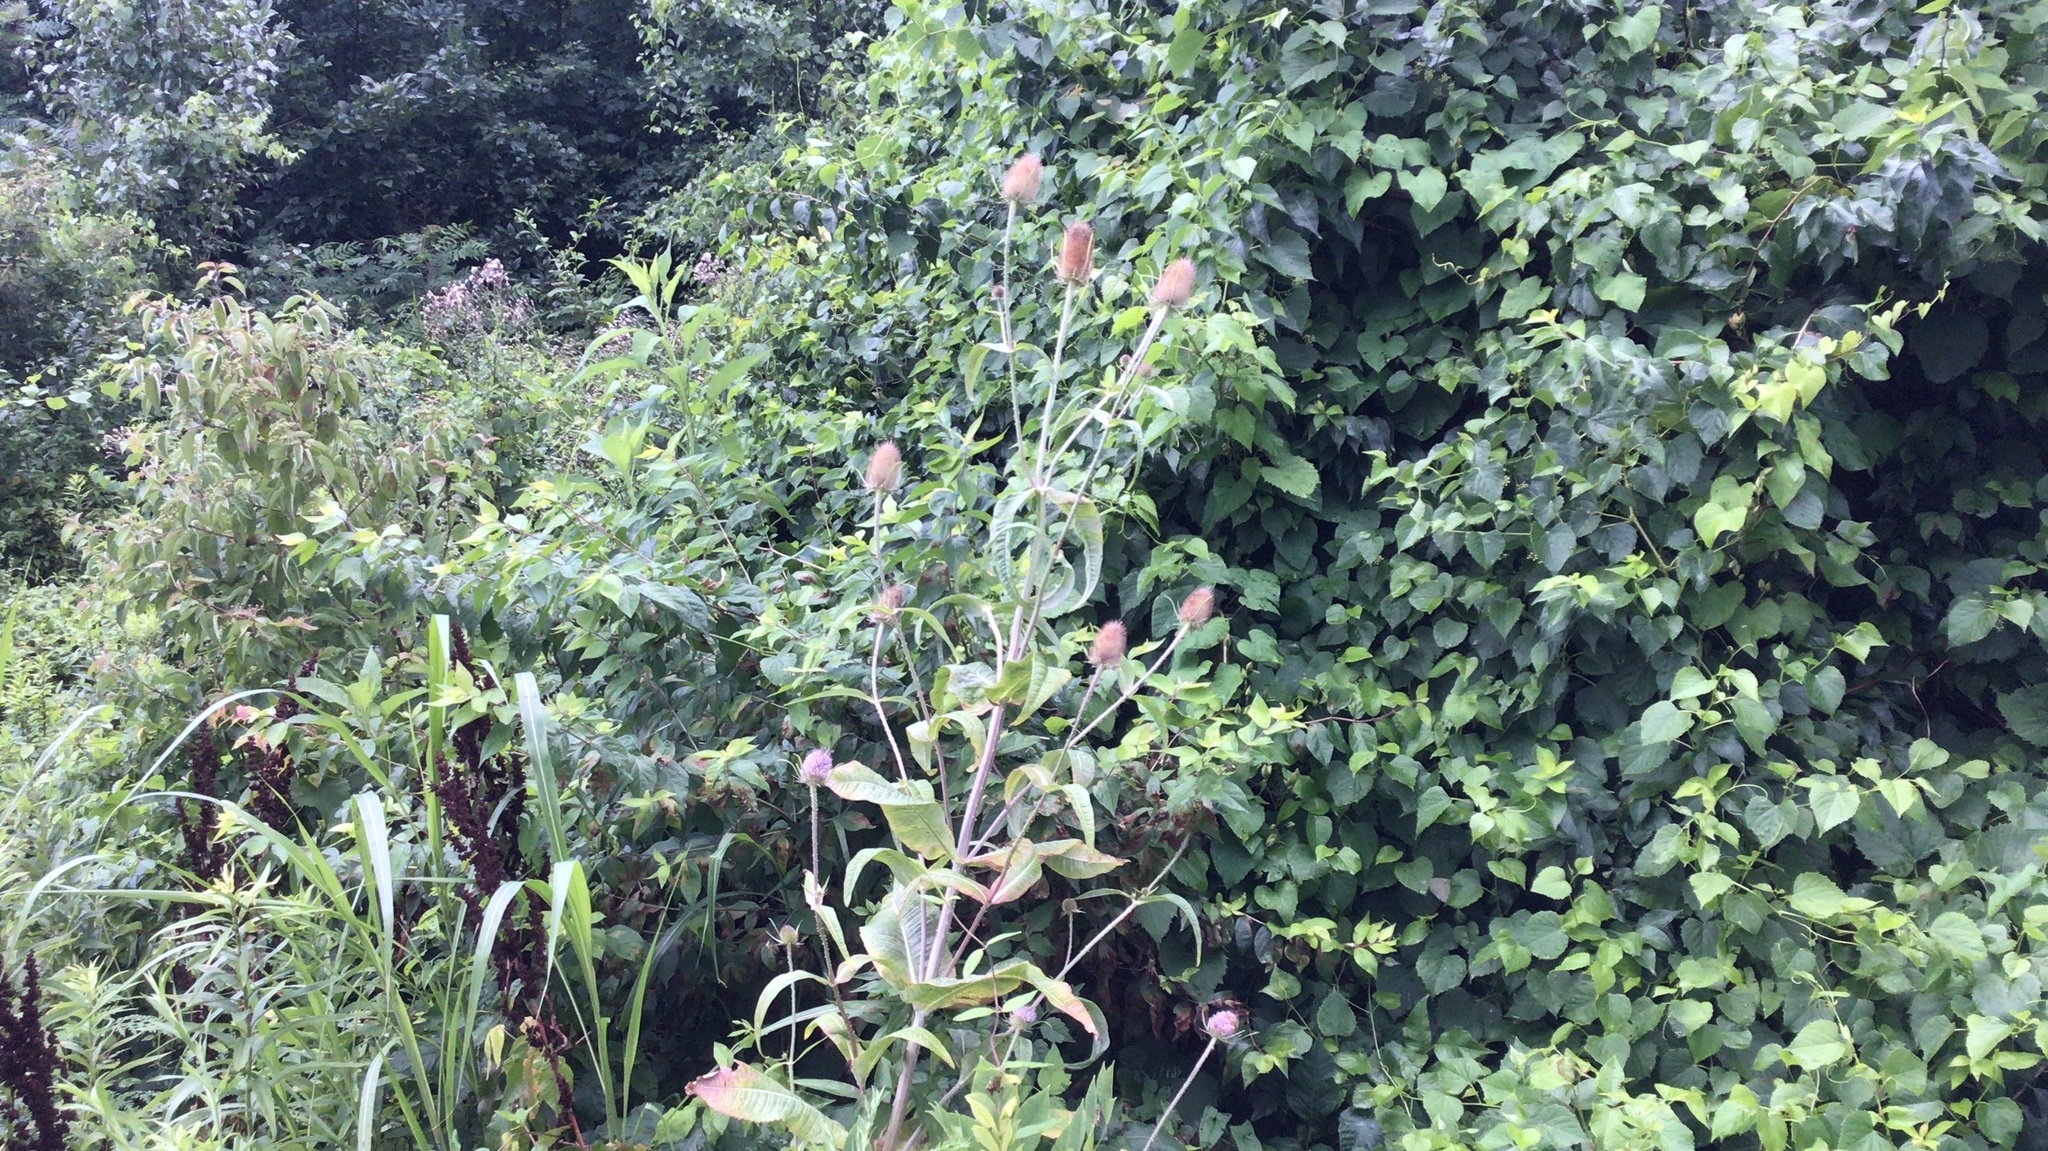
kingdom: Plantae
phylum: Tracheophyta
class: Magnoliopsida
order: Dipsacales
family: Caprifoliaceae
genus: Dipsacus
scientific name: Dipsacus fullonum
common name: Teasel
